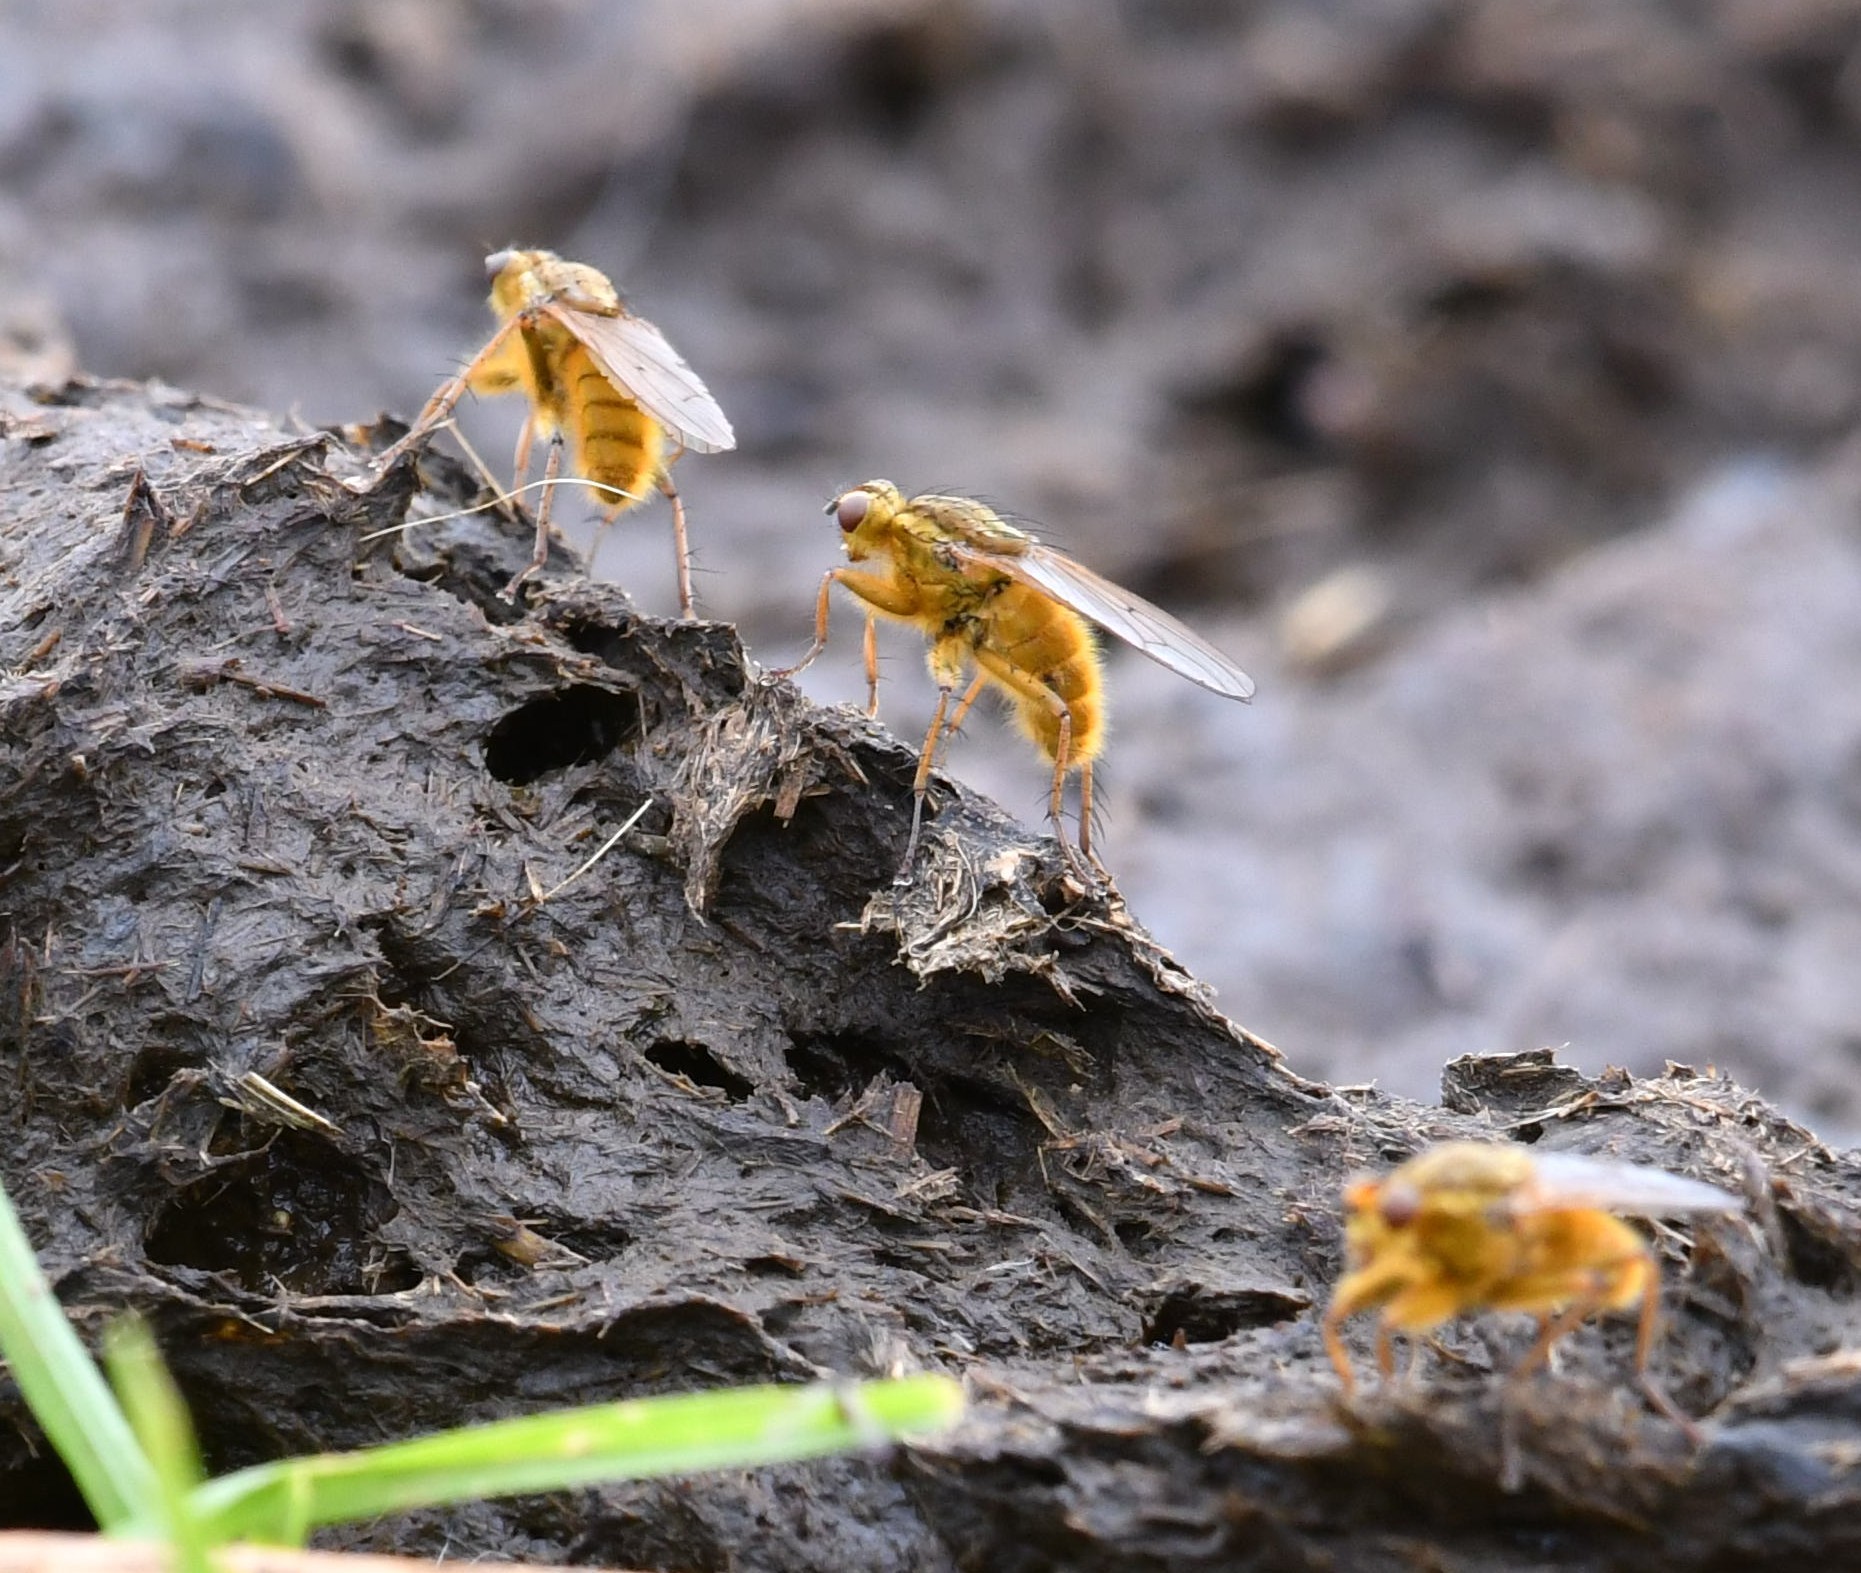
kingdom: Animalia
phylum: Arthropoda
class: Insecta
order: Diptera
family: Scathophagidae
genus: Scathophaga
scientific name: Scathophaga stercoraria
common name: Yellow dung fly
